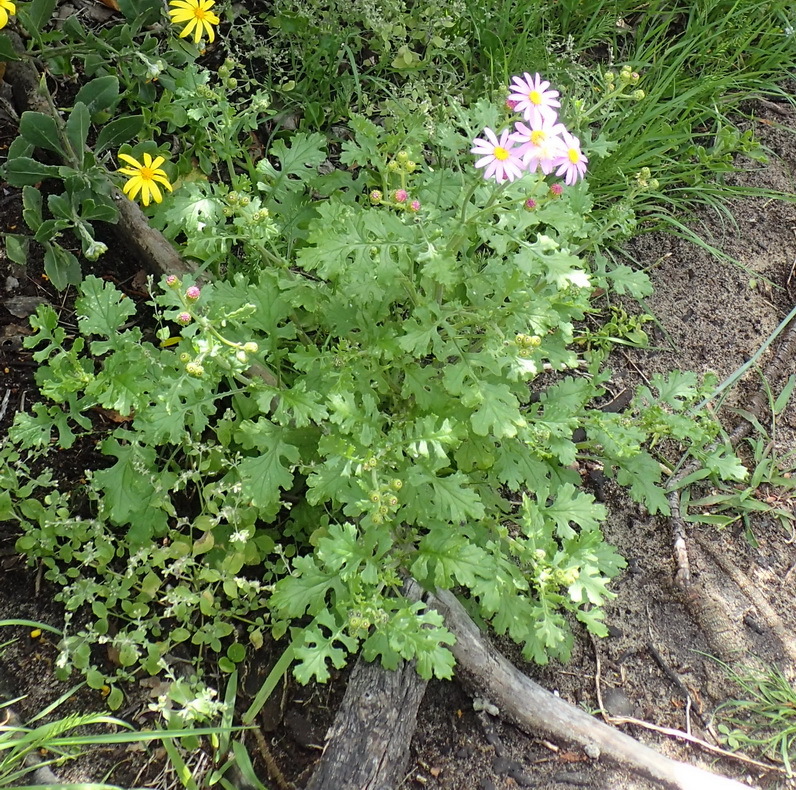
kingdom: Plantae
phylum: Tracheophyta
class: Magnoliopsida
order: Asterales
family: Asteraceae
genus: Senecio
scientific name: Senecio elegans
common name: Purple groundsel
